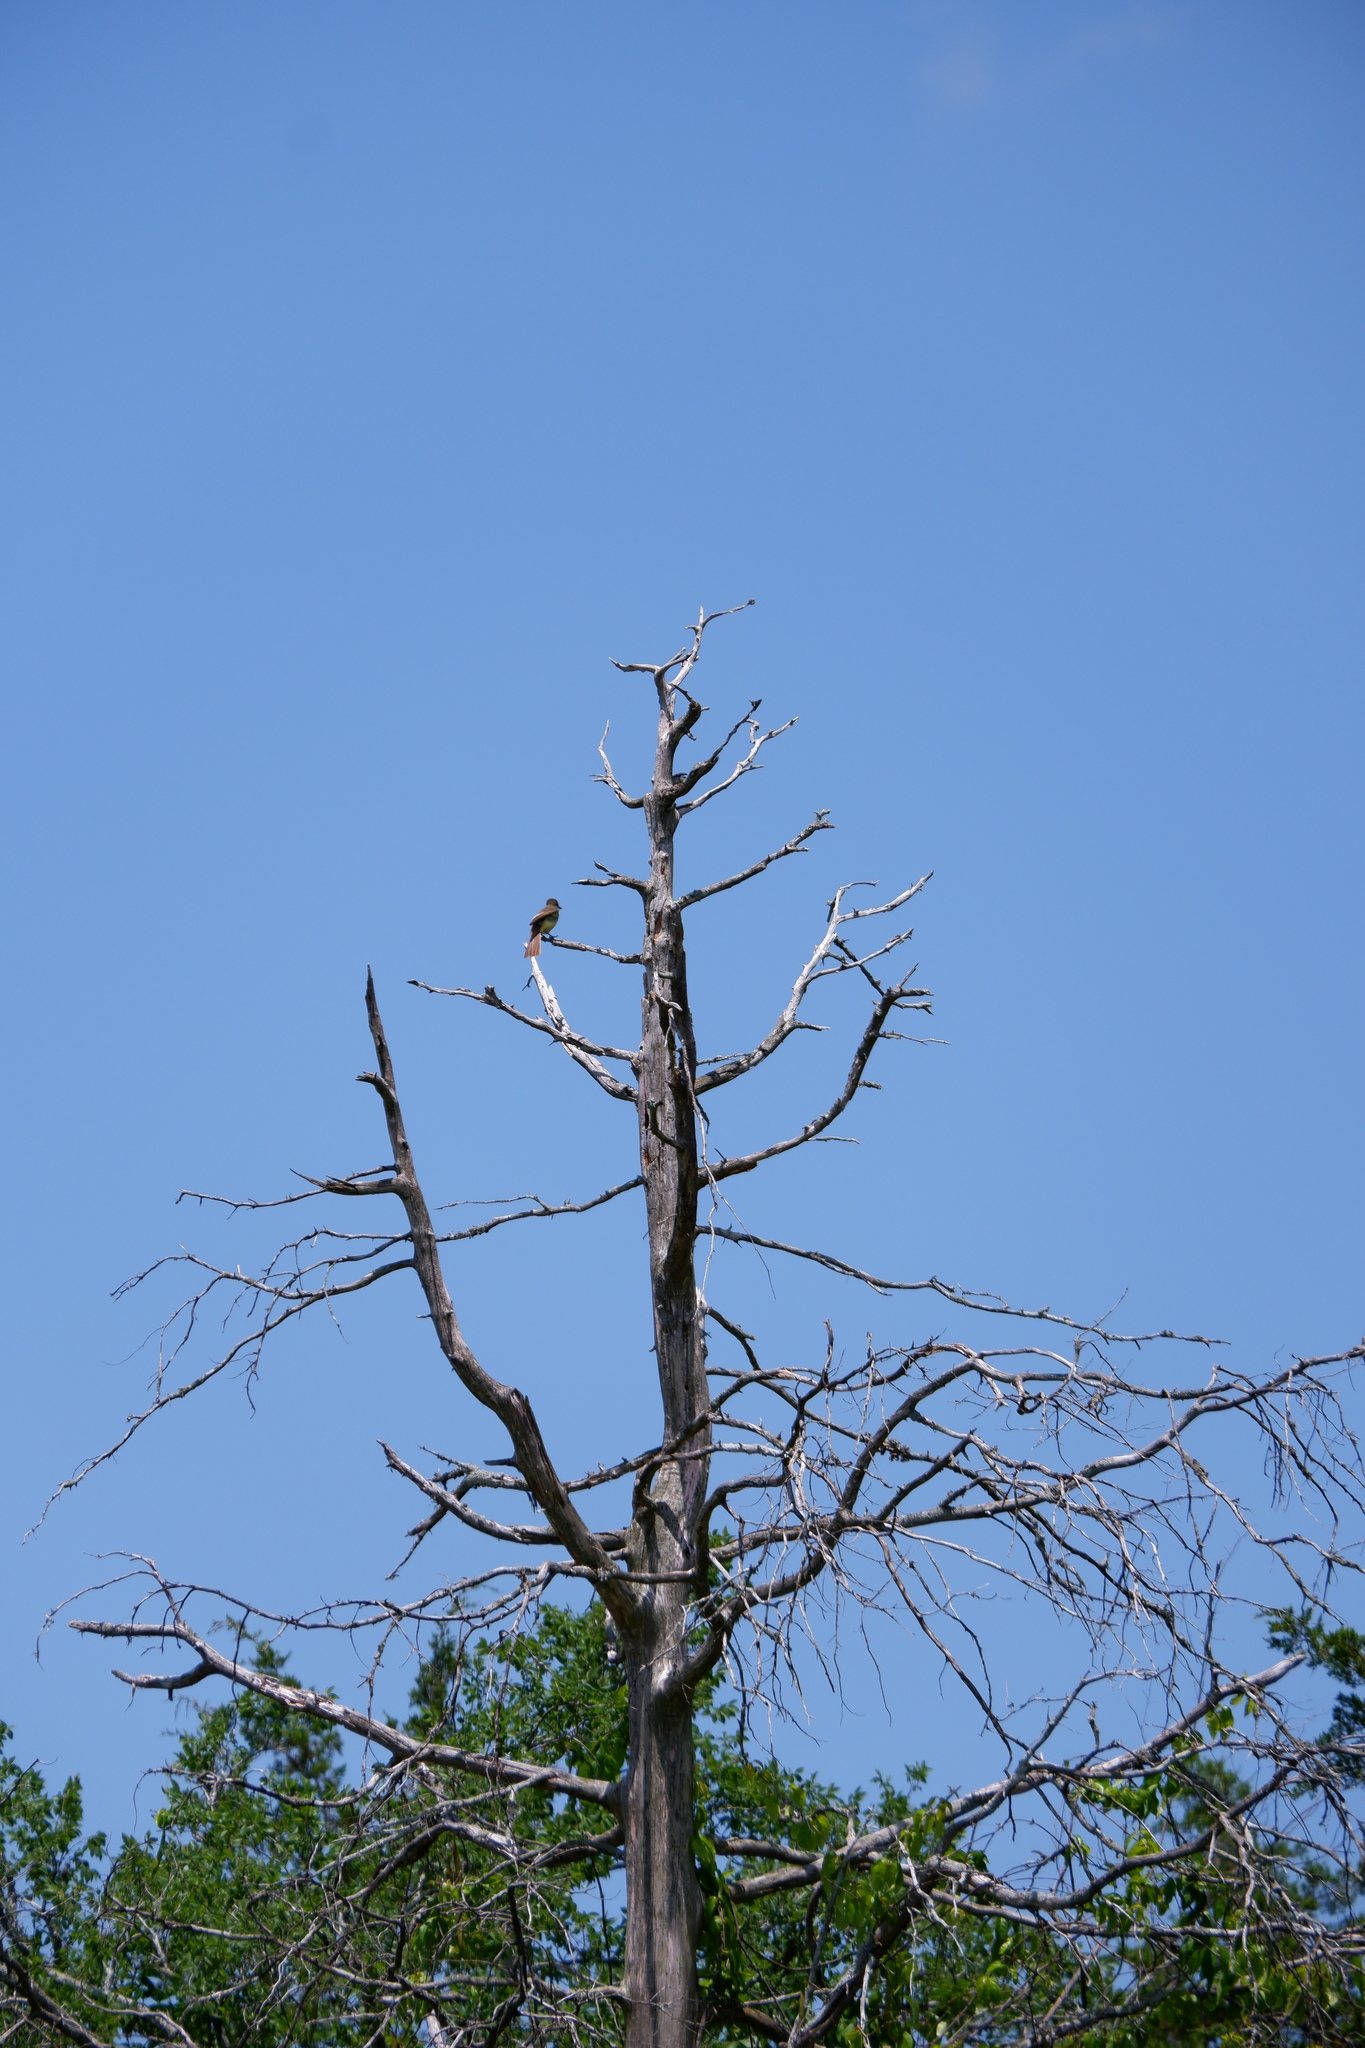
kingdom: Animalia
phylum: Chordata
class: Aves
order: Passeriformes
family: Tyrannidae
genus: Myiarchus
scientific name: Myiarchus crinitus
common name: Great crested flycatcher
